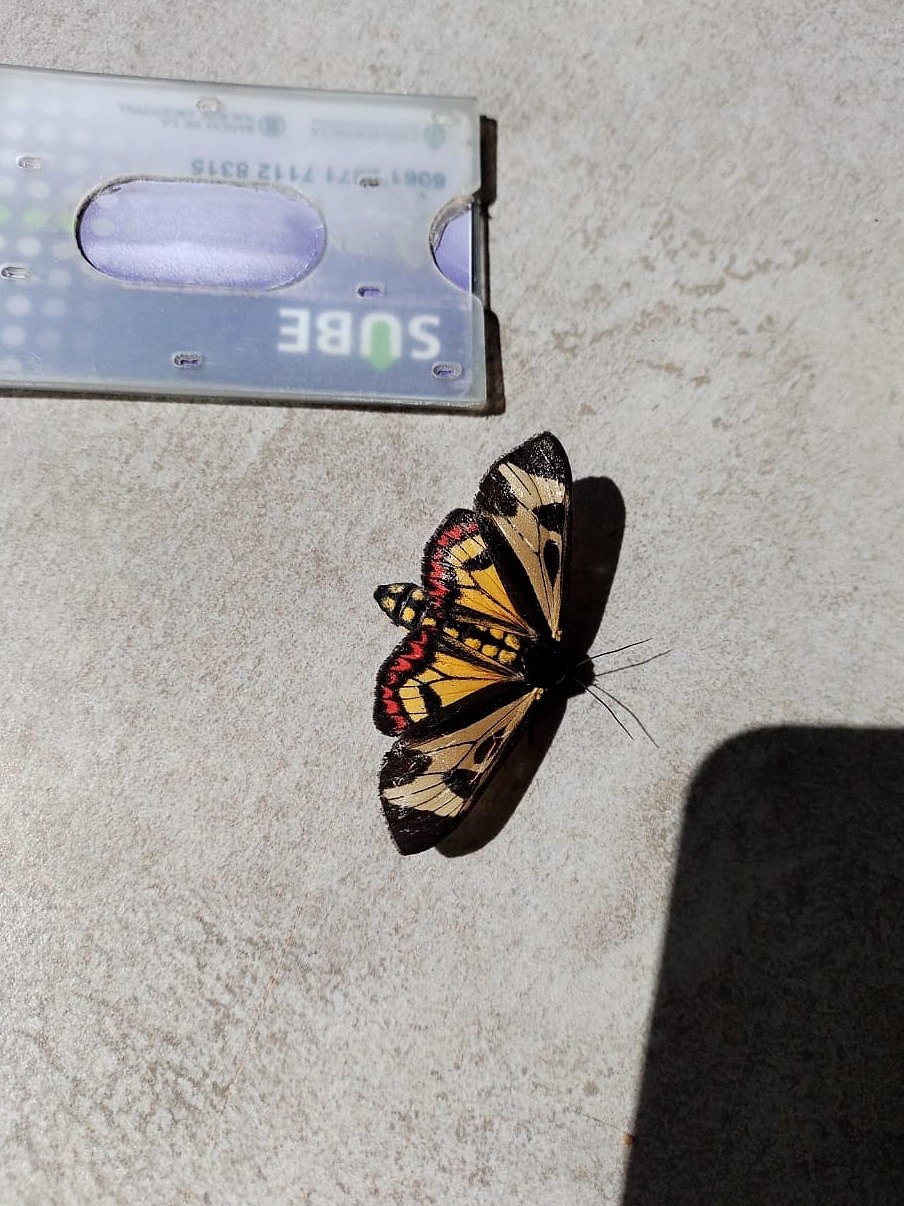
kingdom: Animalia
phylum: Arthropoda
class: Insecta
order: Lepidoptera
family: Erebidae
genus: Dysschema
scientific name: Dysschema centenaria
